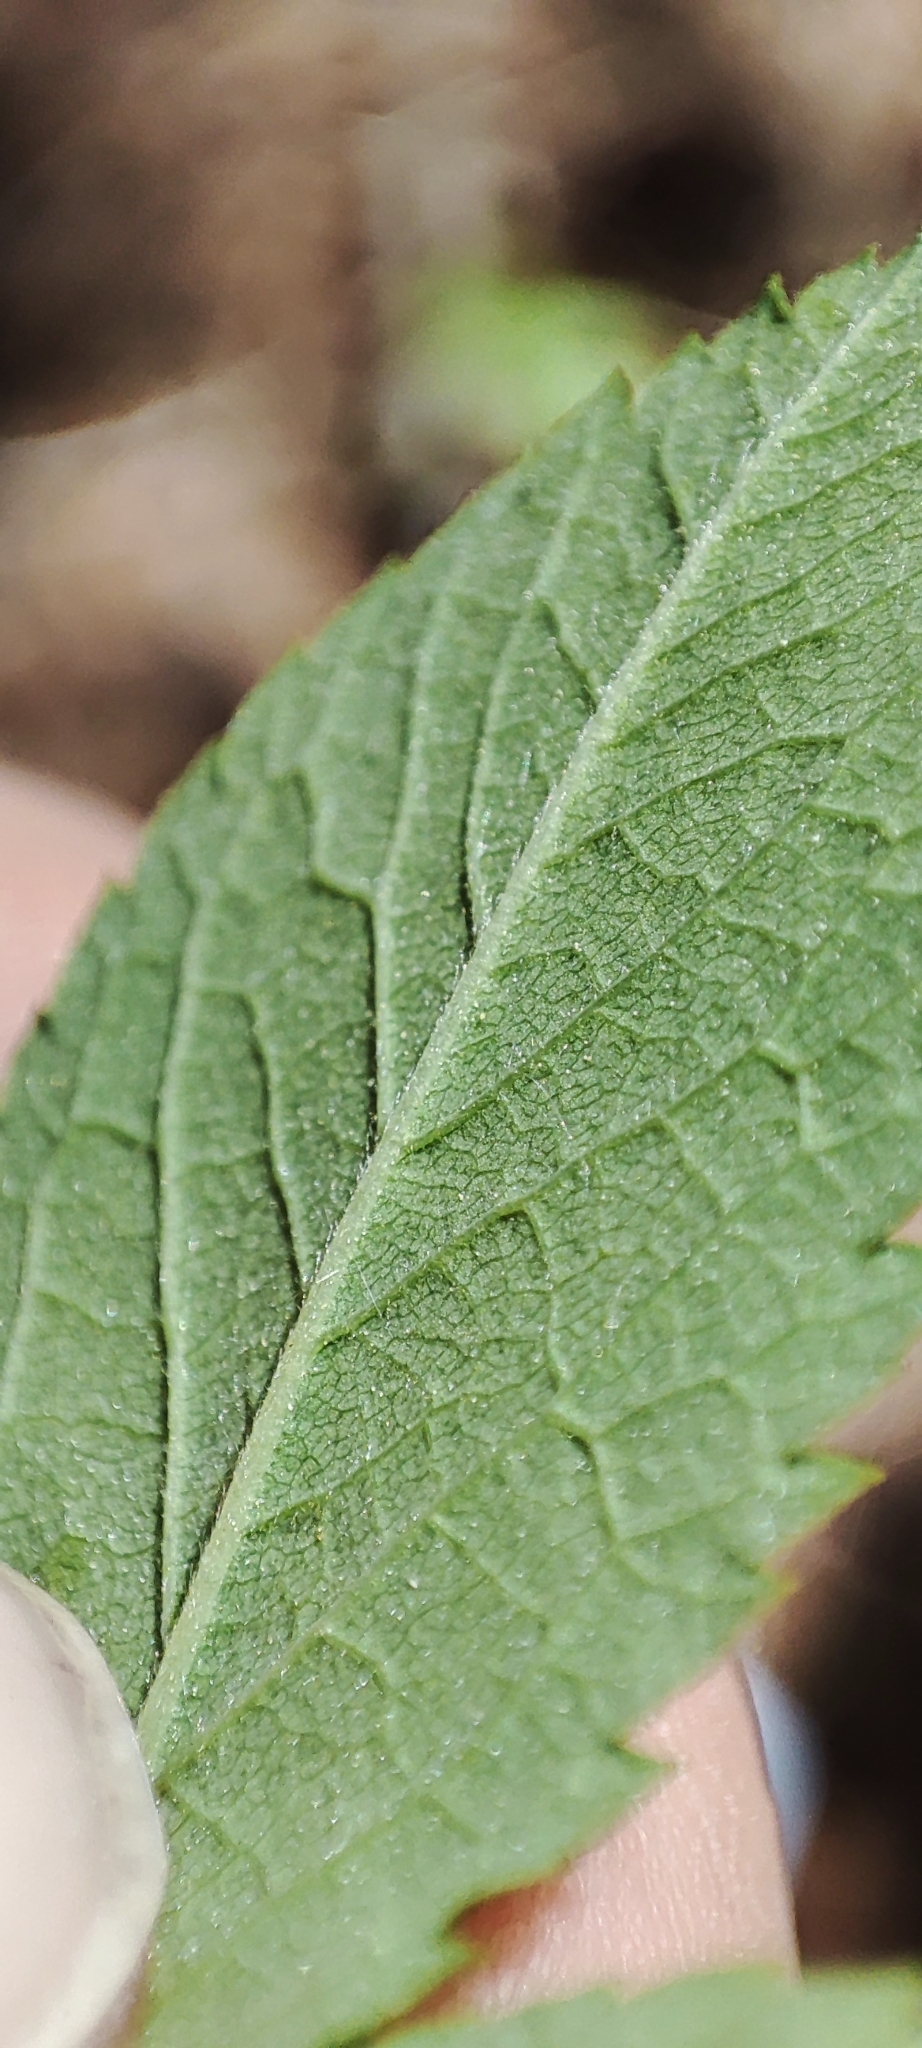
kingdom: Plantae
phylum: Tracheophyta
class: Magnoliopsida
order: Rosales
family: Rosaceae
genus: Rosa
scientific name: Rosa majalis
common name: Cinnamon rose
